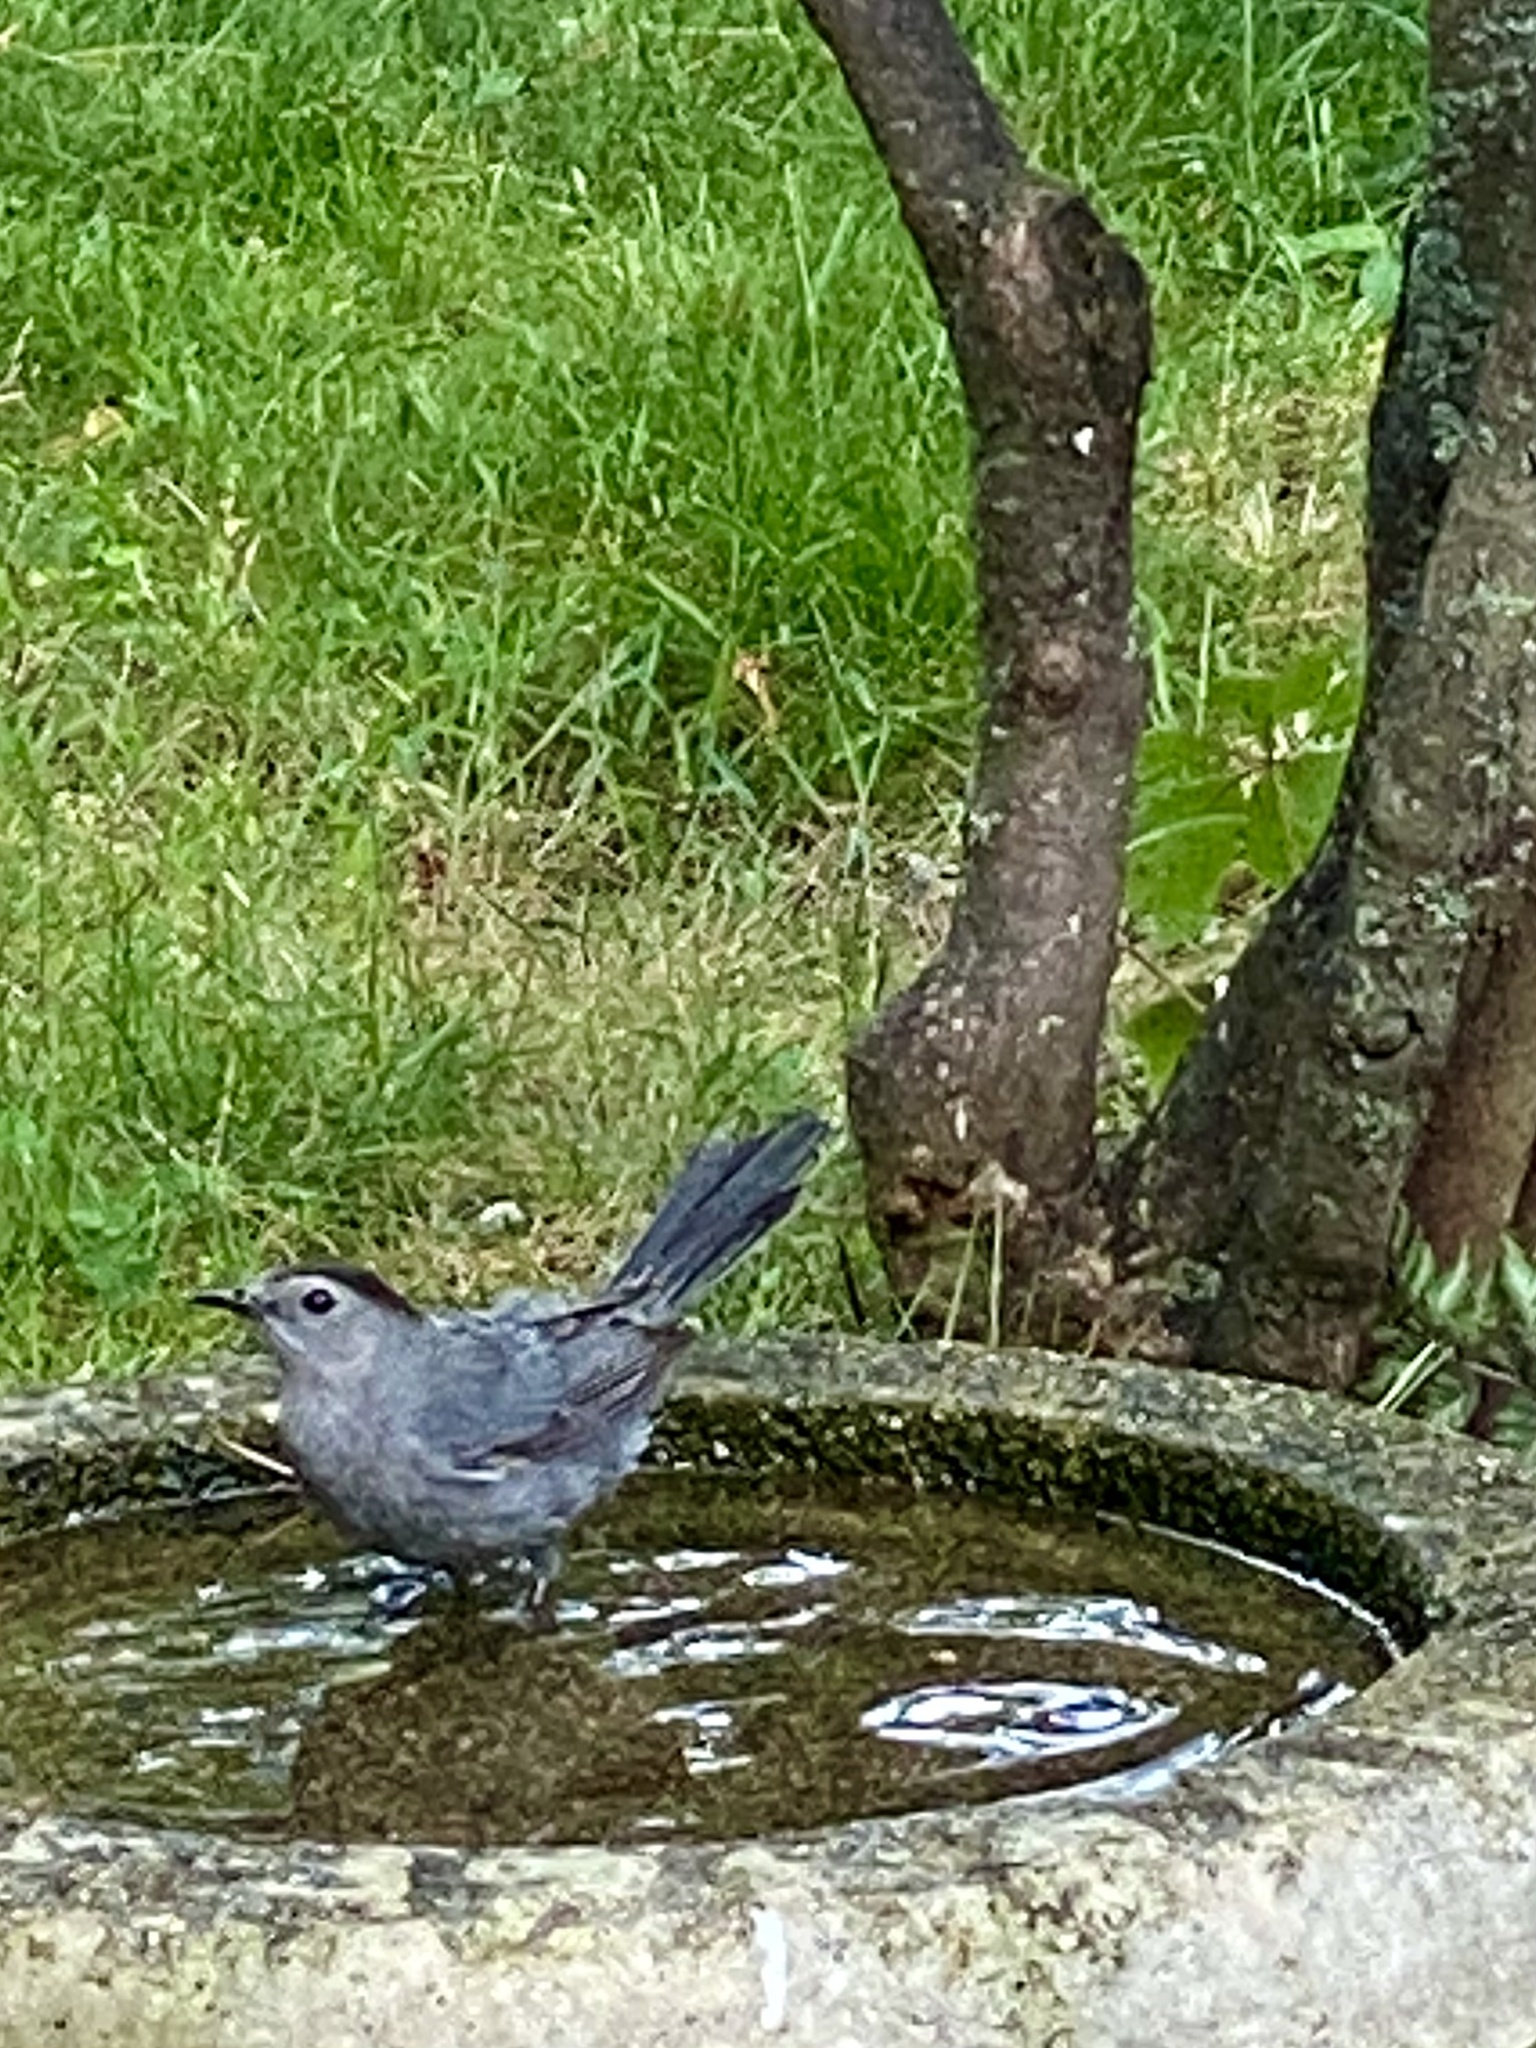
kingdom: Animalia
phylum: Chordata
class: Aves
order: Passeriformes
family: Mimidae
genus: Dumetella
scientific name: Dumetella carolinensis
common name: Gray catbird
